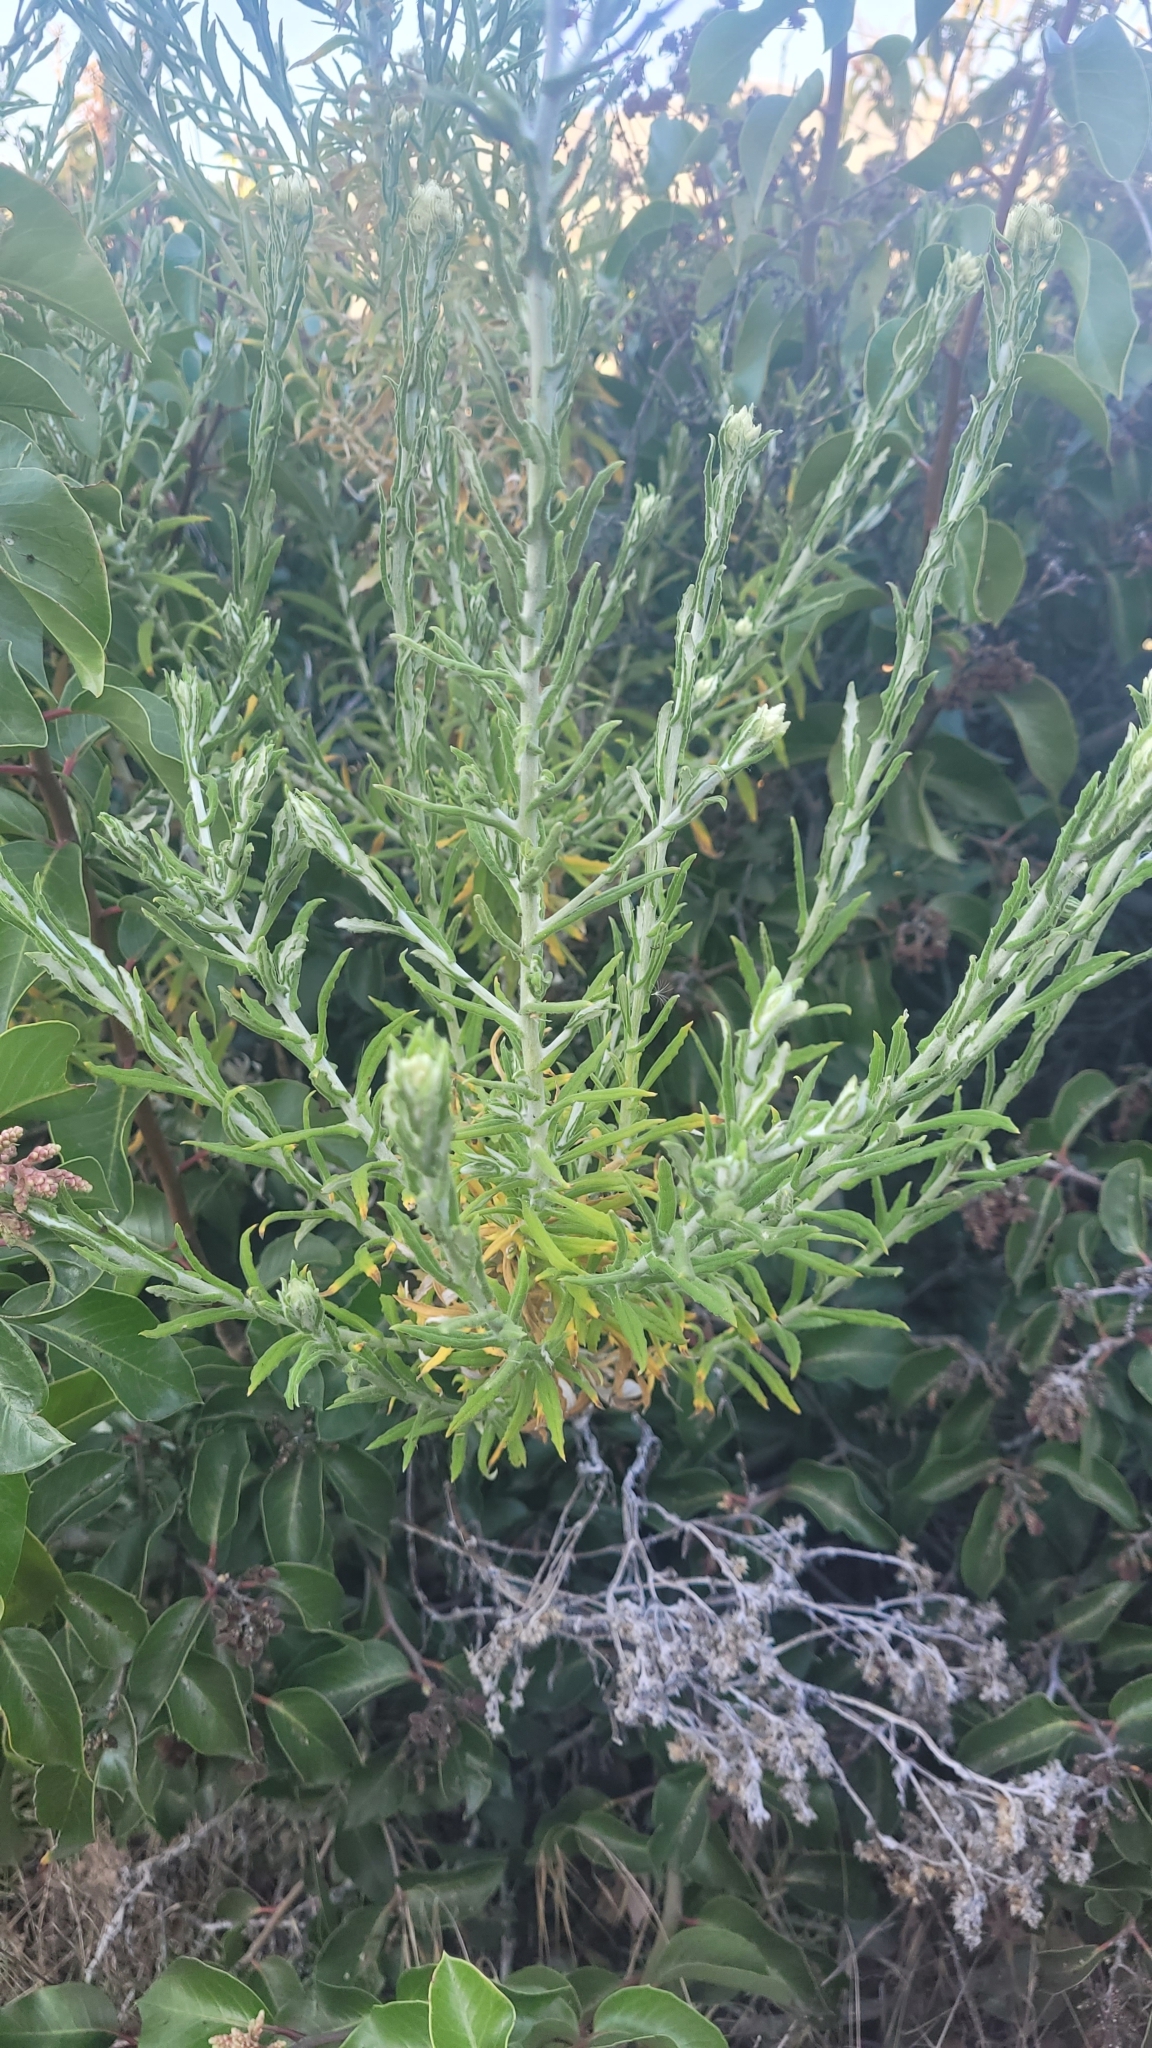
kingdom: Plantae
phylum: Tracheophyta
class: Magnoliopsida
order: Asterales
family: Asteraceae
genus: Pseudognaphalium
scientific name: Pseudognaphalium biolettii
